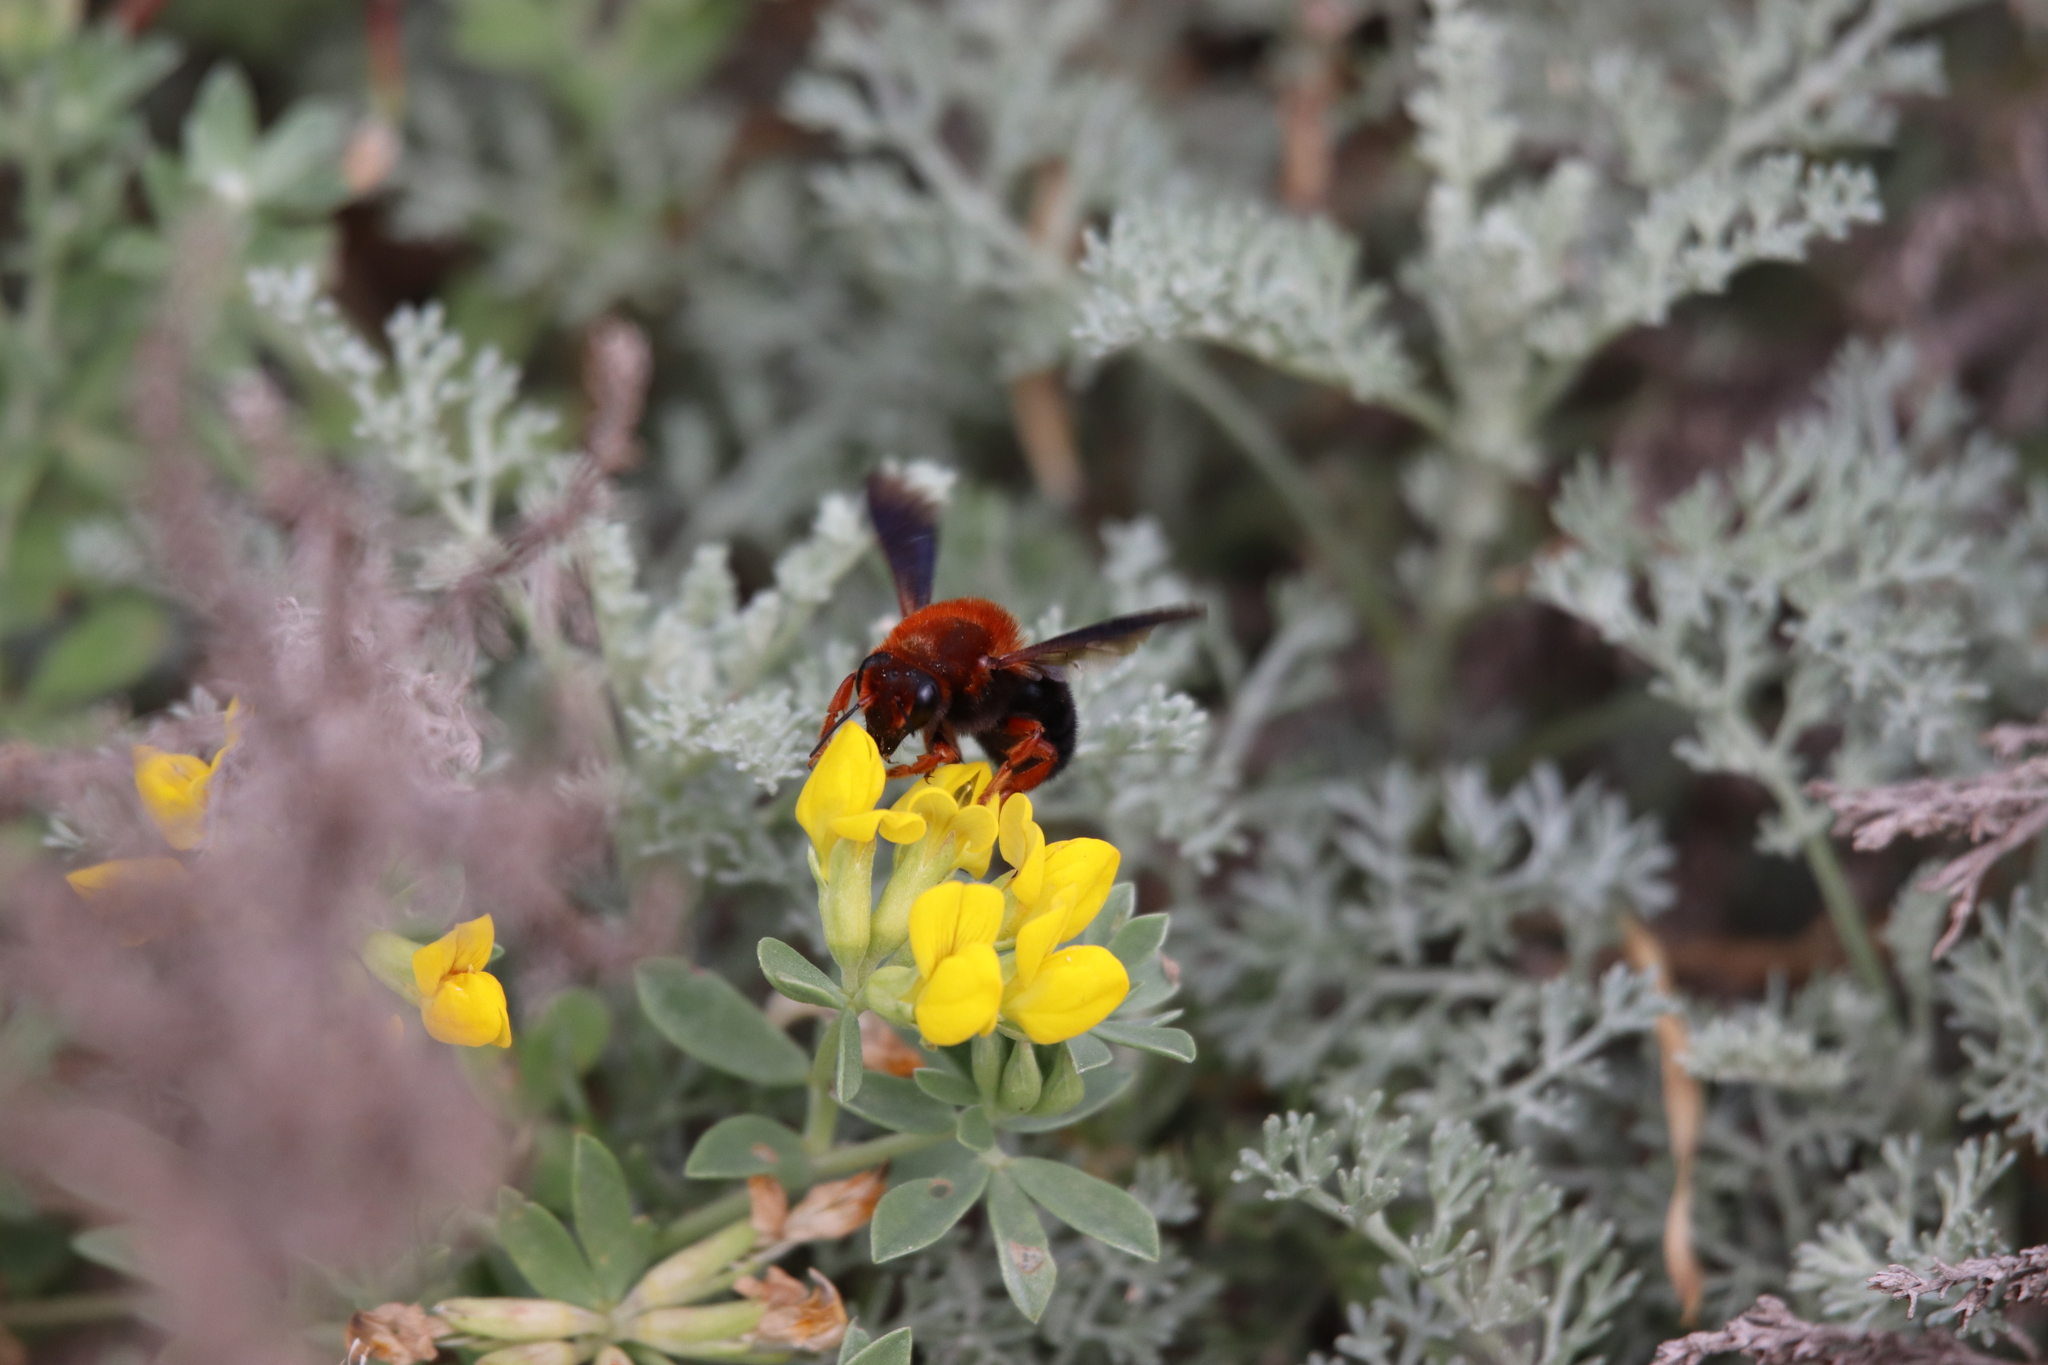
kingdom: Animalia
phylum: Arthropoda
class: Insecta
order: Hymenoptera
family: Megachilidae
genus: Megachile
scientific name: Megachile sicula
